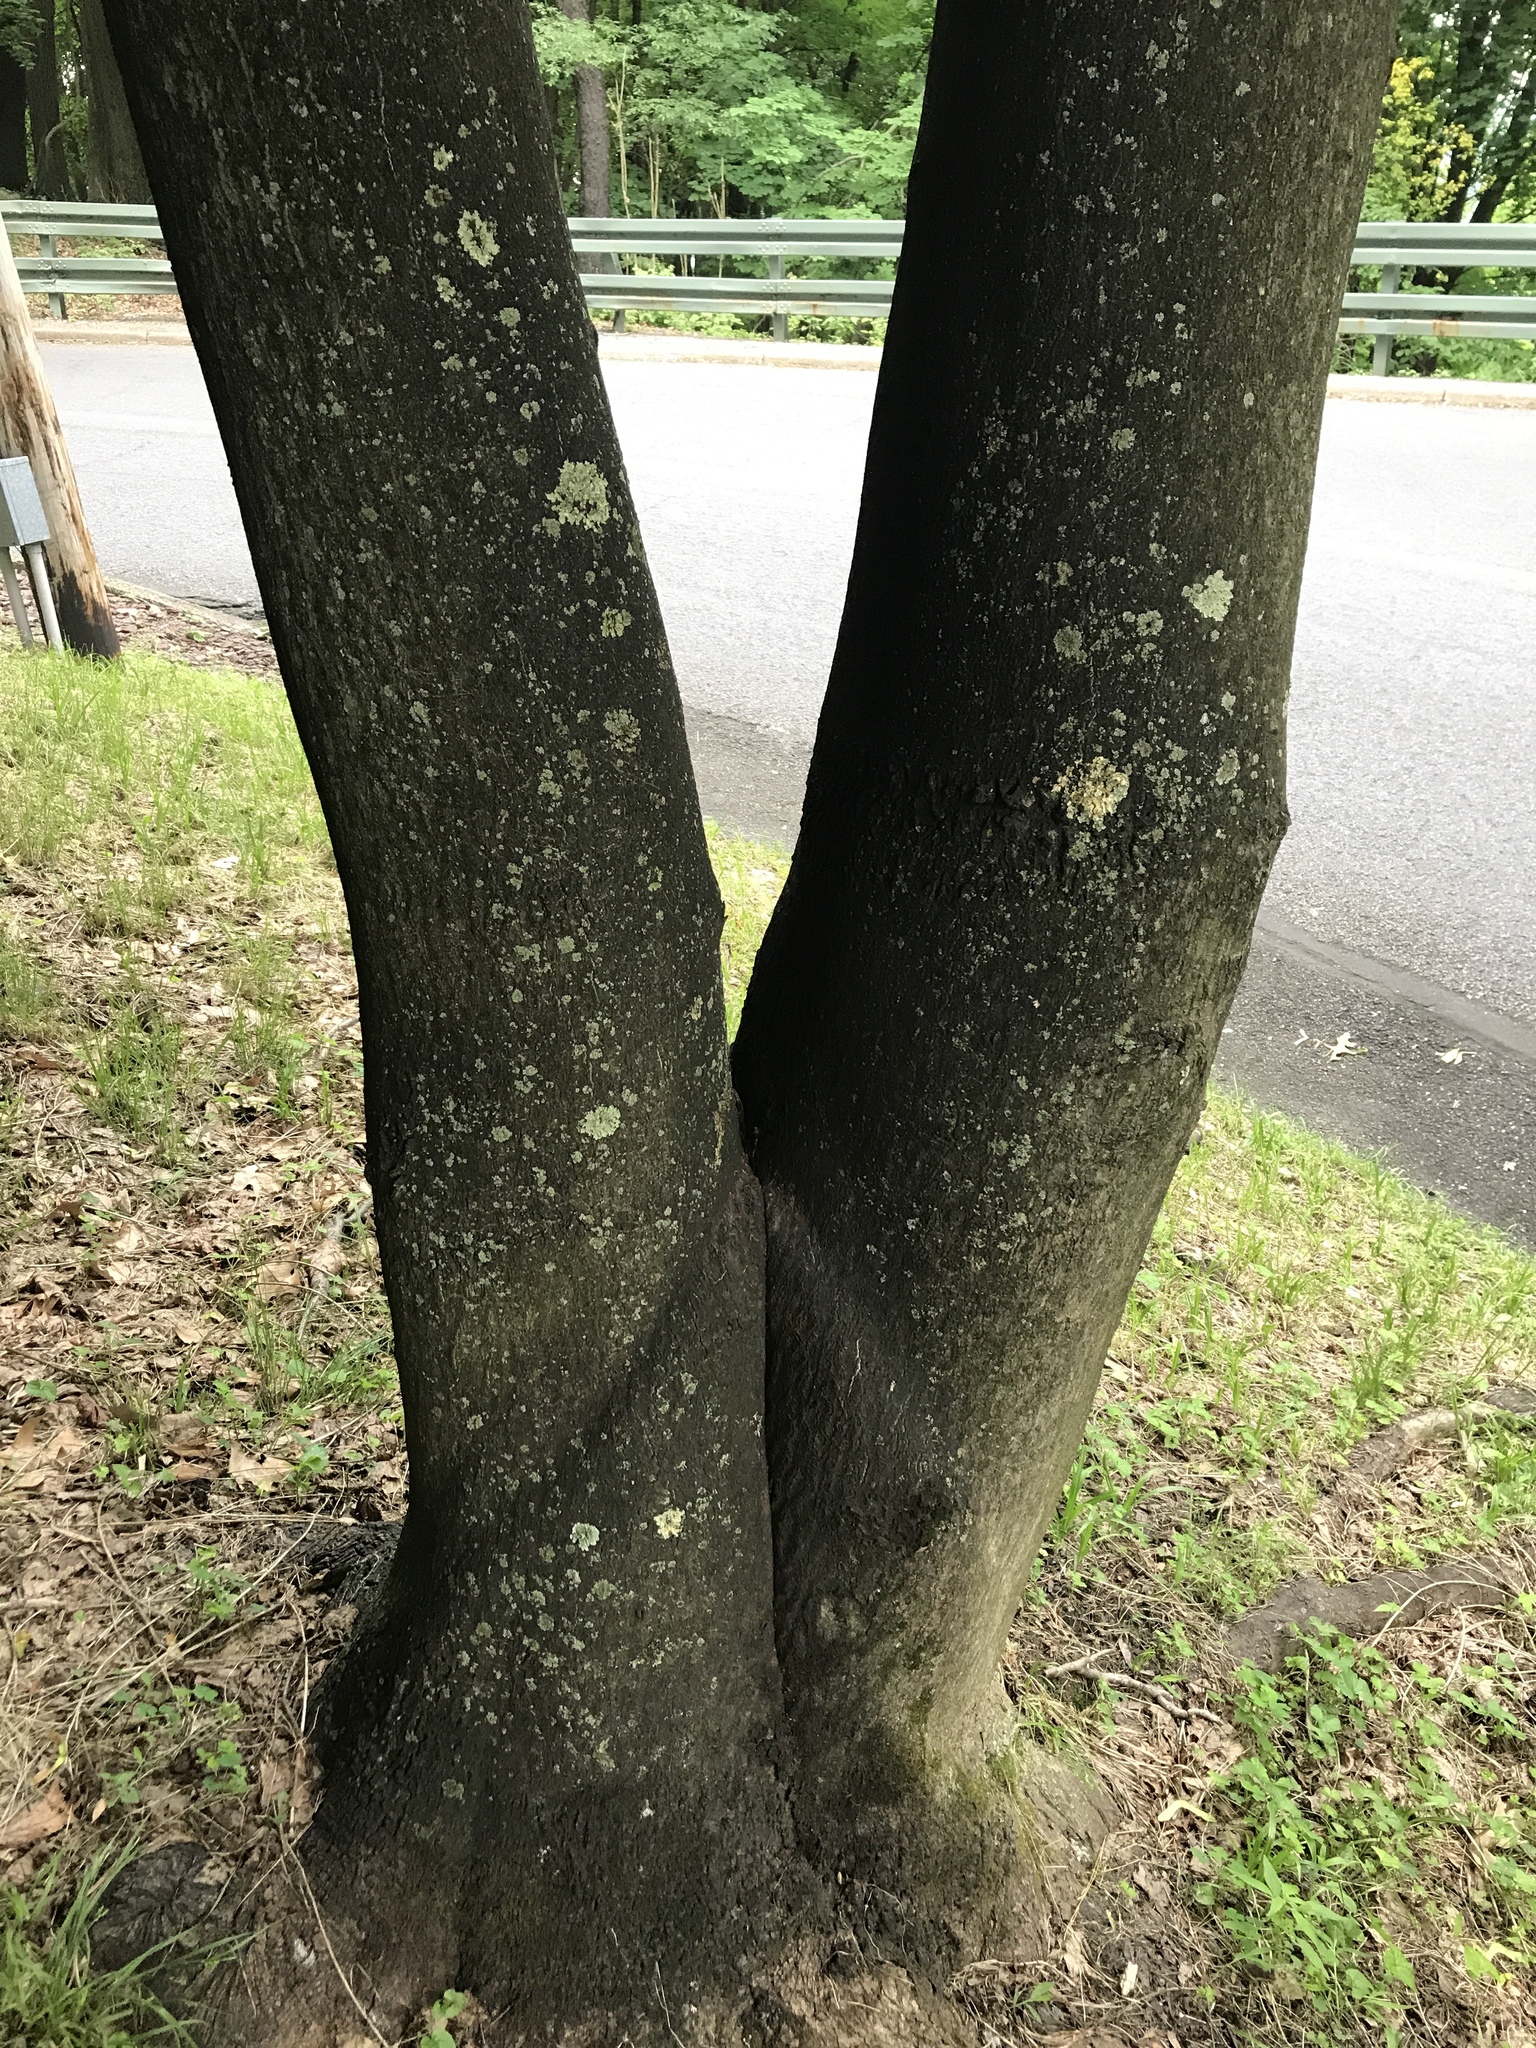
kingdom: Plantae
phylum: Tracheophyta
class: Magnoliopsida
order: Sapindales
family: Simaroubaceae
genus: Ailanthus
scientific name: Ailanthus altissima
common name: Tree-of-heaven
